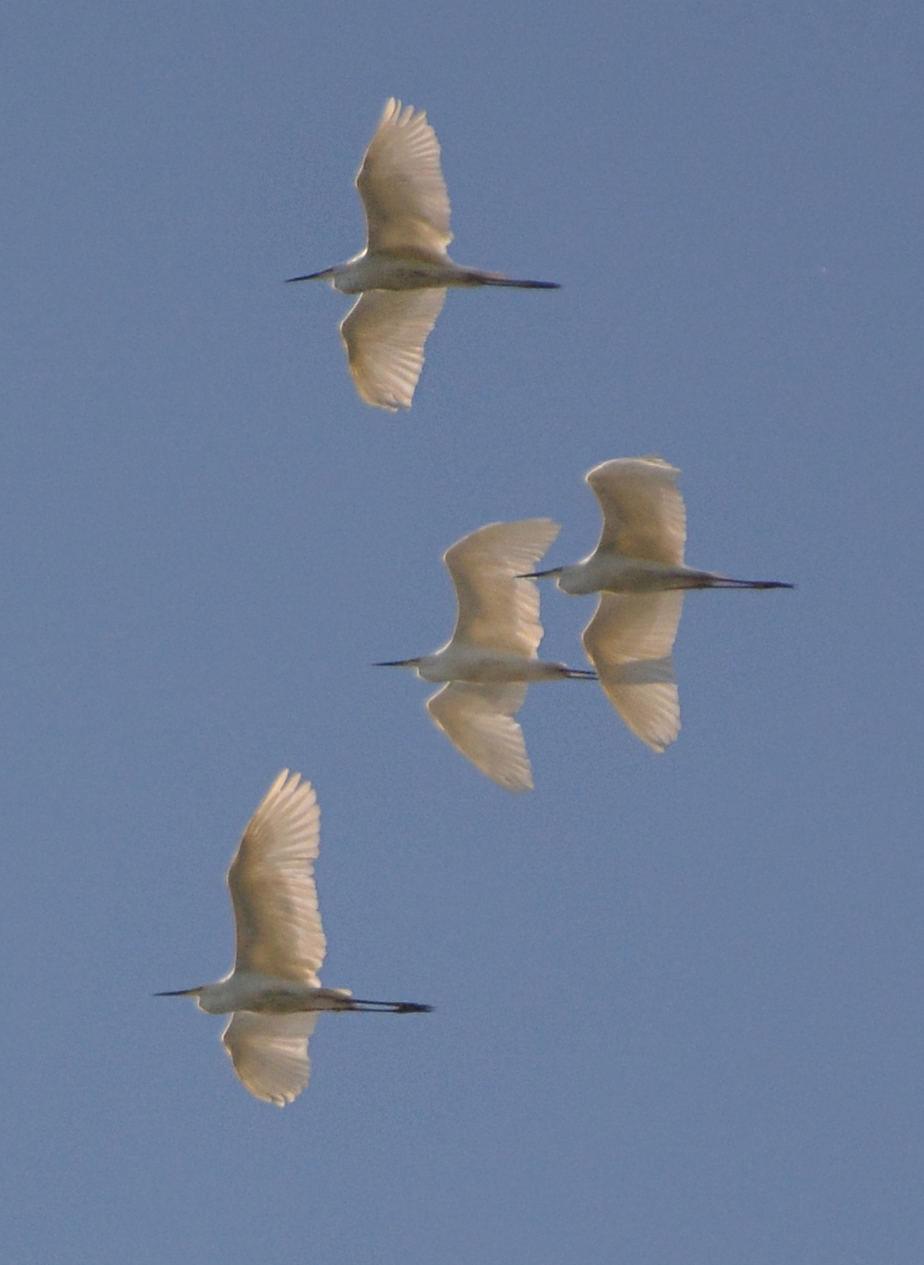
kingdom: Animalia
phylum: Chordata
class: Aves
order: Pelecaniformes
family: Ardeidae
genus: Ardea
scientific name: Ardea alba
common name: Great egret
